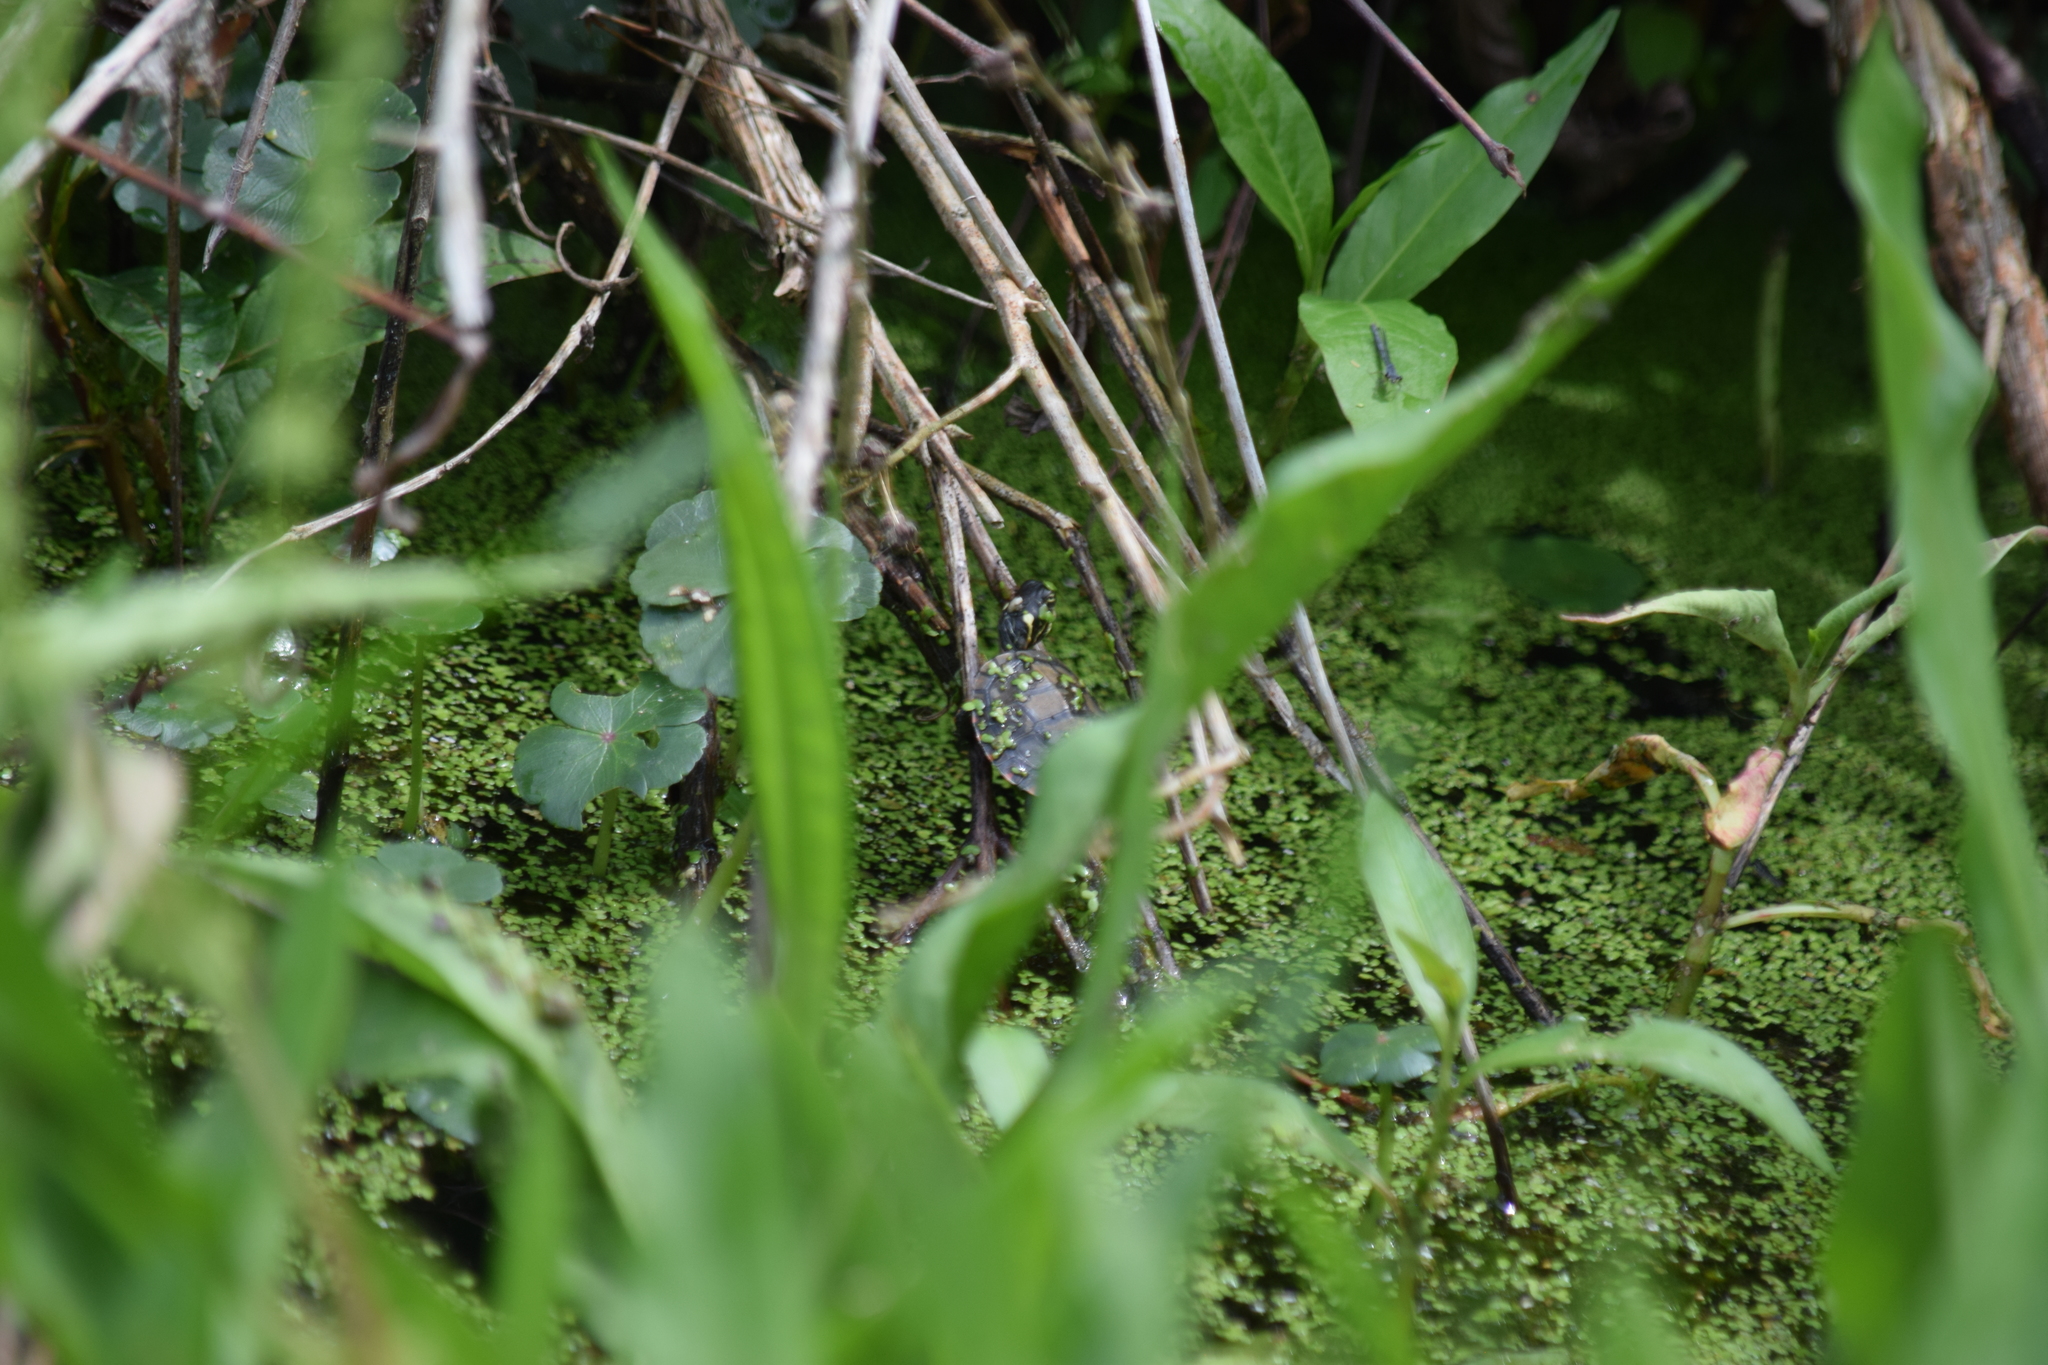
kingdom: Animalia
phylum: Chordata
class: Testudines
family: Emydidae
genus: Chrysemys
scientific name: Chrysemys picta
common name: Painted turtle
